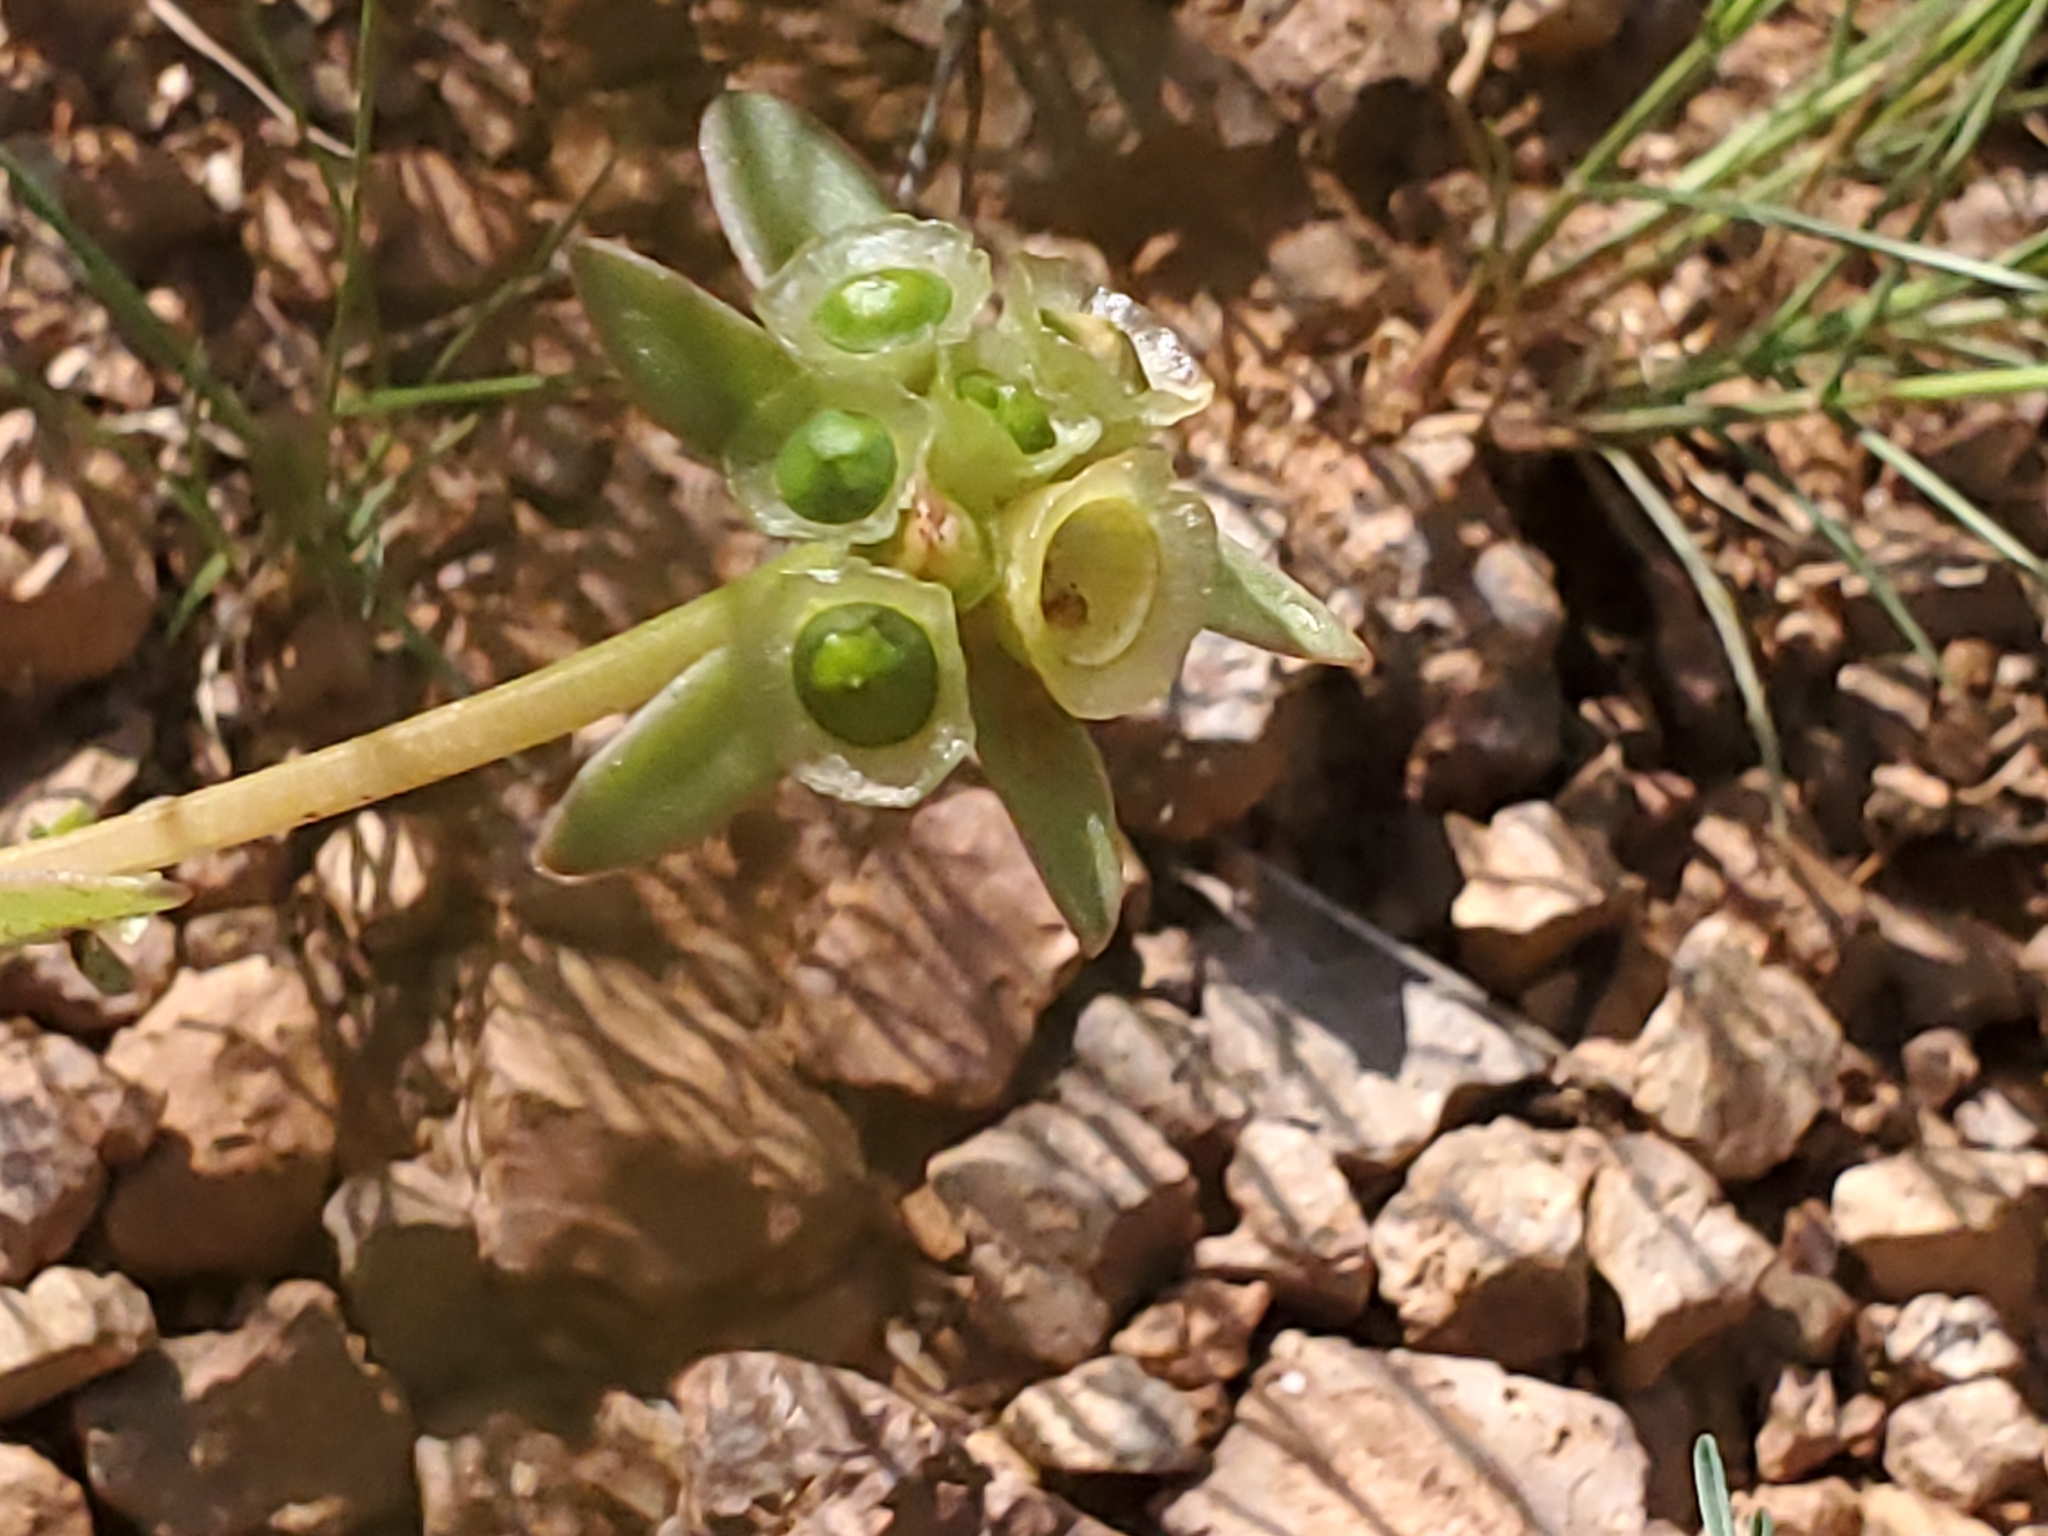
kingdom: Plantae
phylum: Tracheophyta
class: Magnoliopsida
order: Caryophyllales
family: Portulacaceae
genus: Portulaca
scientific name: Portulaca umbraticola
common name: Wingpod purslane
